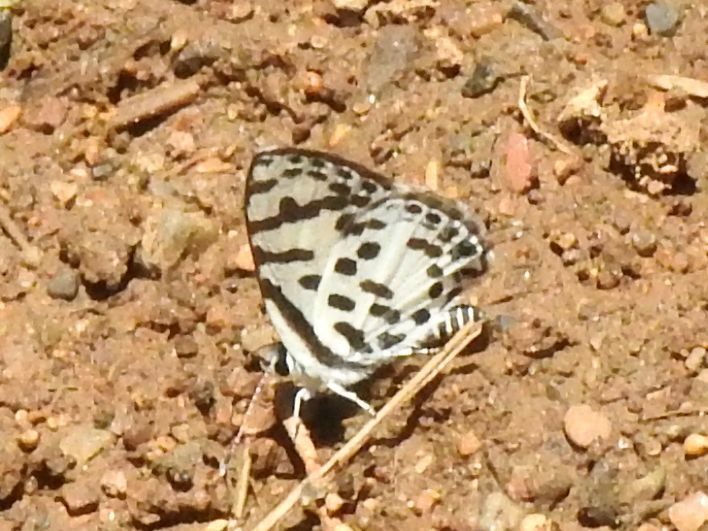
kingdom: Animalia
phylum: Arthropoda
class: Insecta
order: Lepidoptera
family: Lycaenidae
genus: Castalius
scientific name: Castalius calice
